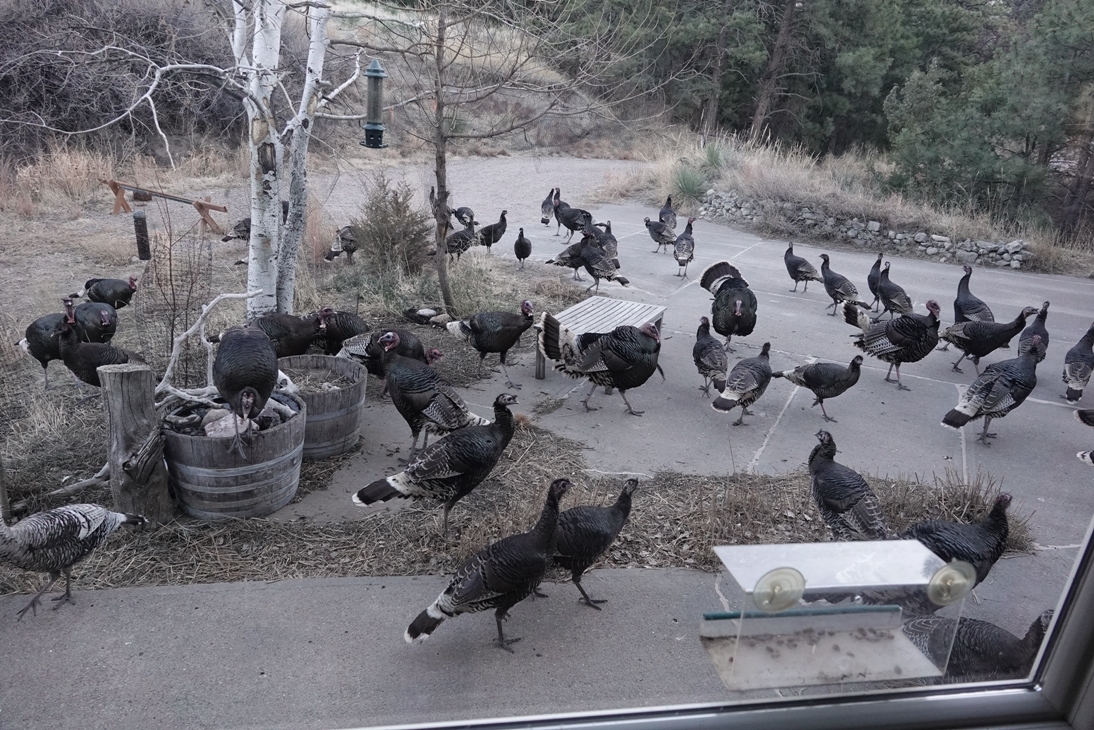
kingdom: Animalia
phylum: Chordata
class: Aves
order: Galliformes
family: Phasianidae
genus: Meleagris
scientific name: Meleagris gallopavo
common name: Wild turkey
